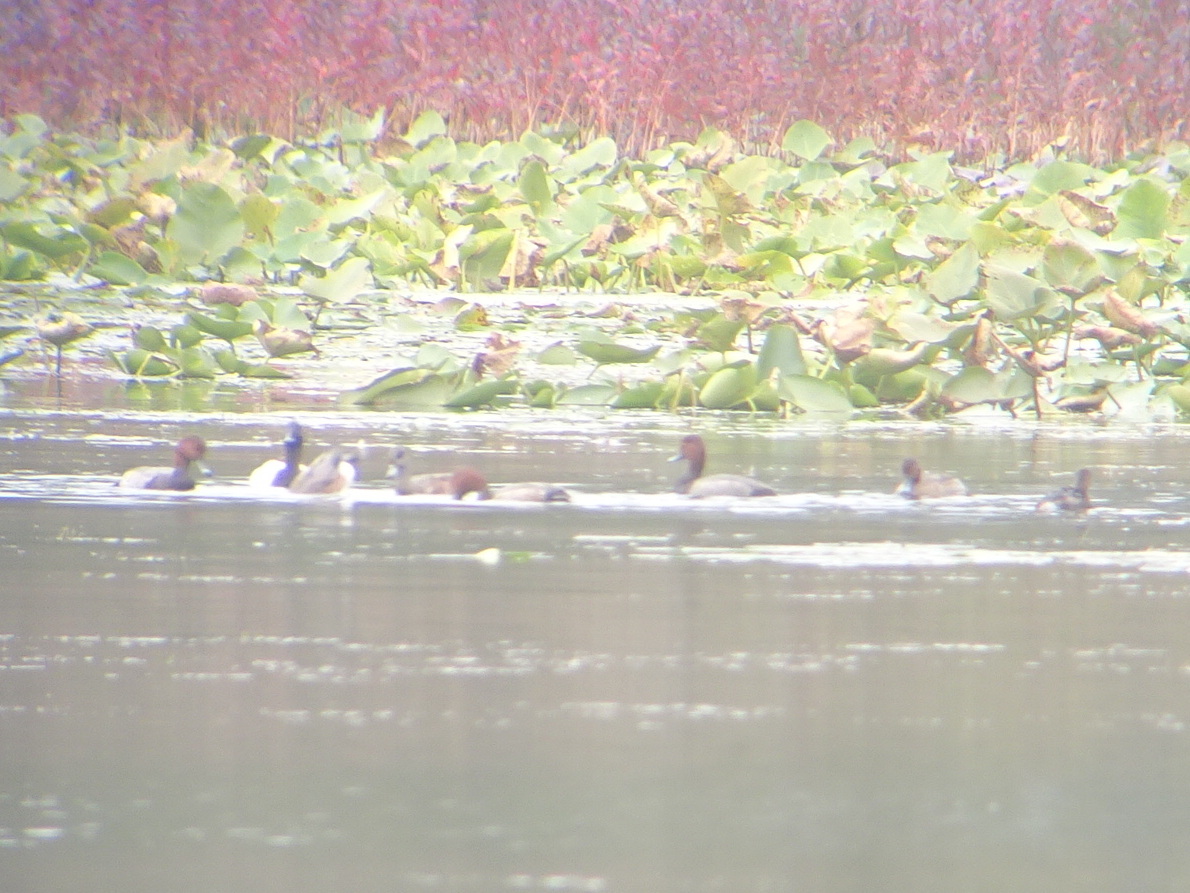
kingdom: Animalia
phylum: Chordata
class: Aves
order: Anseriformes
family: Anatidae
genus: Mareca
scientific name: Mareca americana
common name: American wigeon
